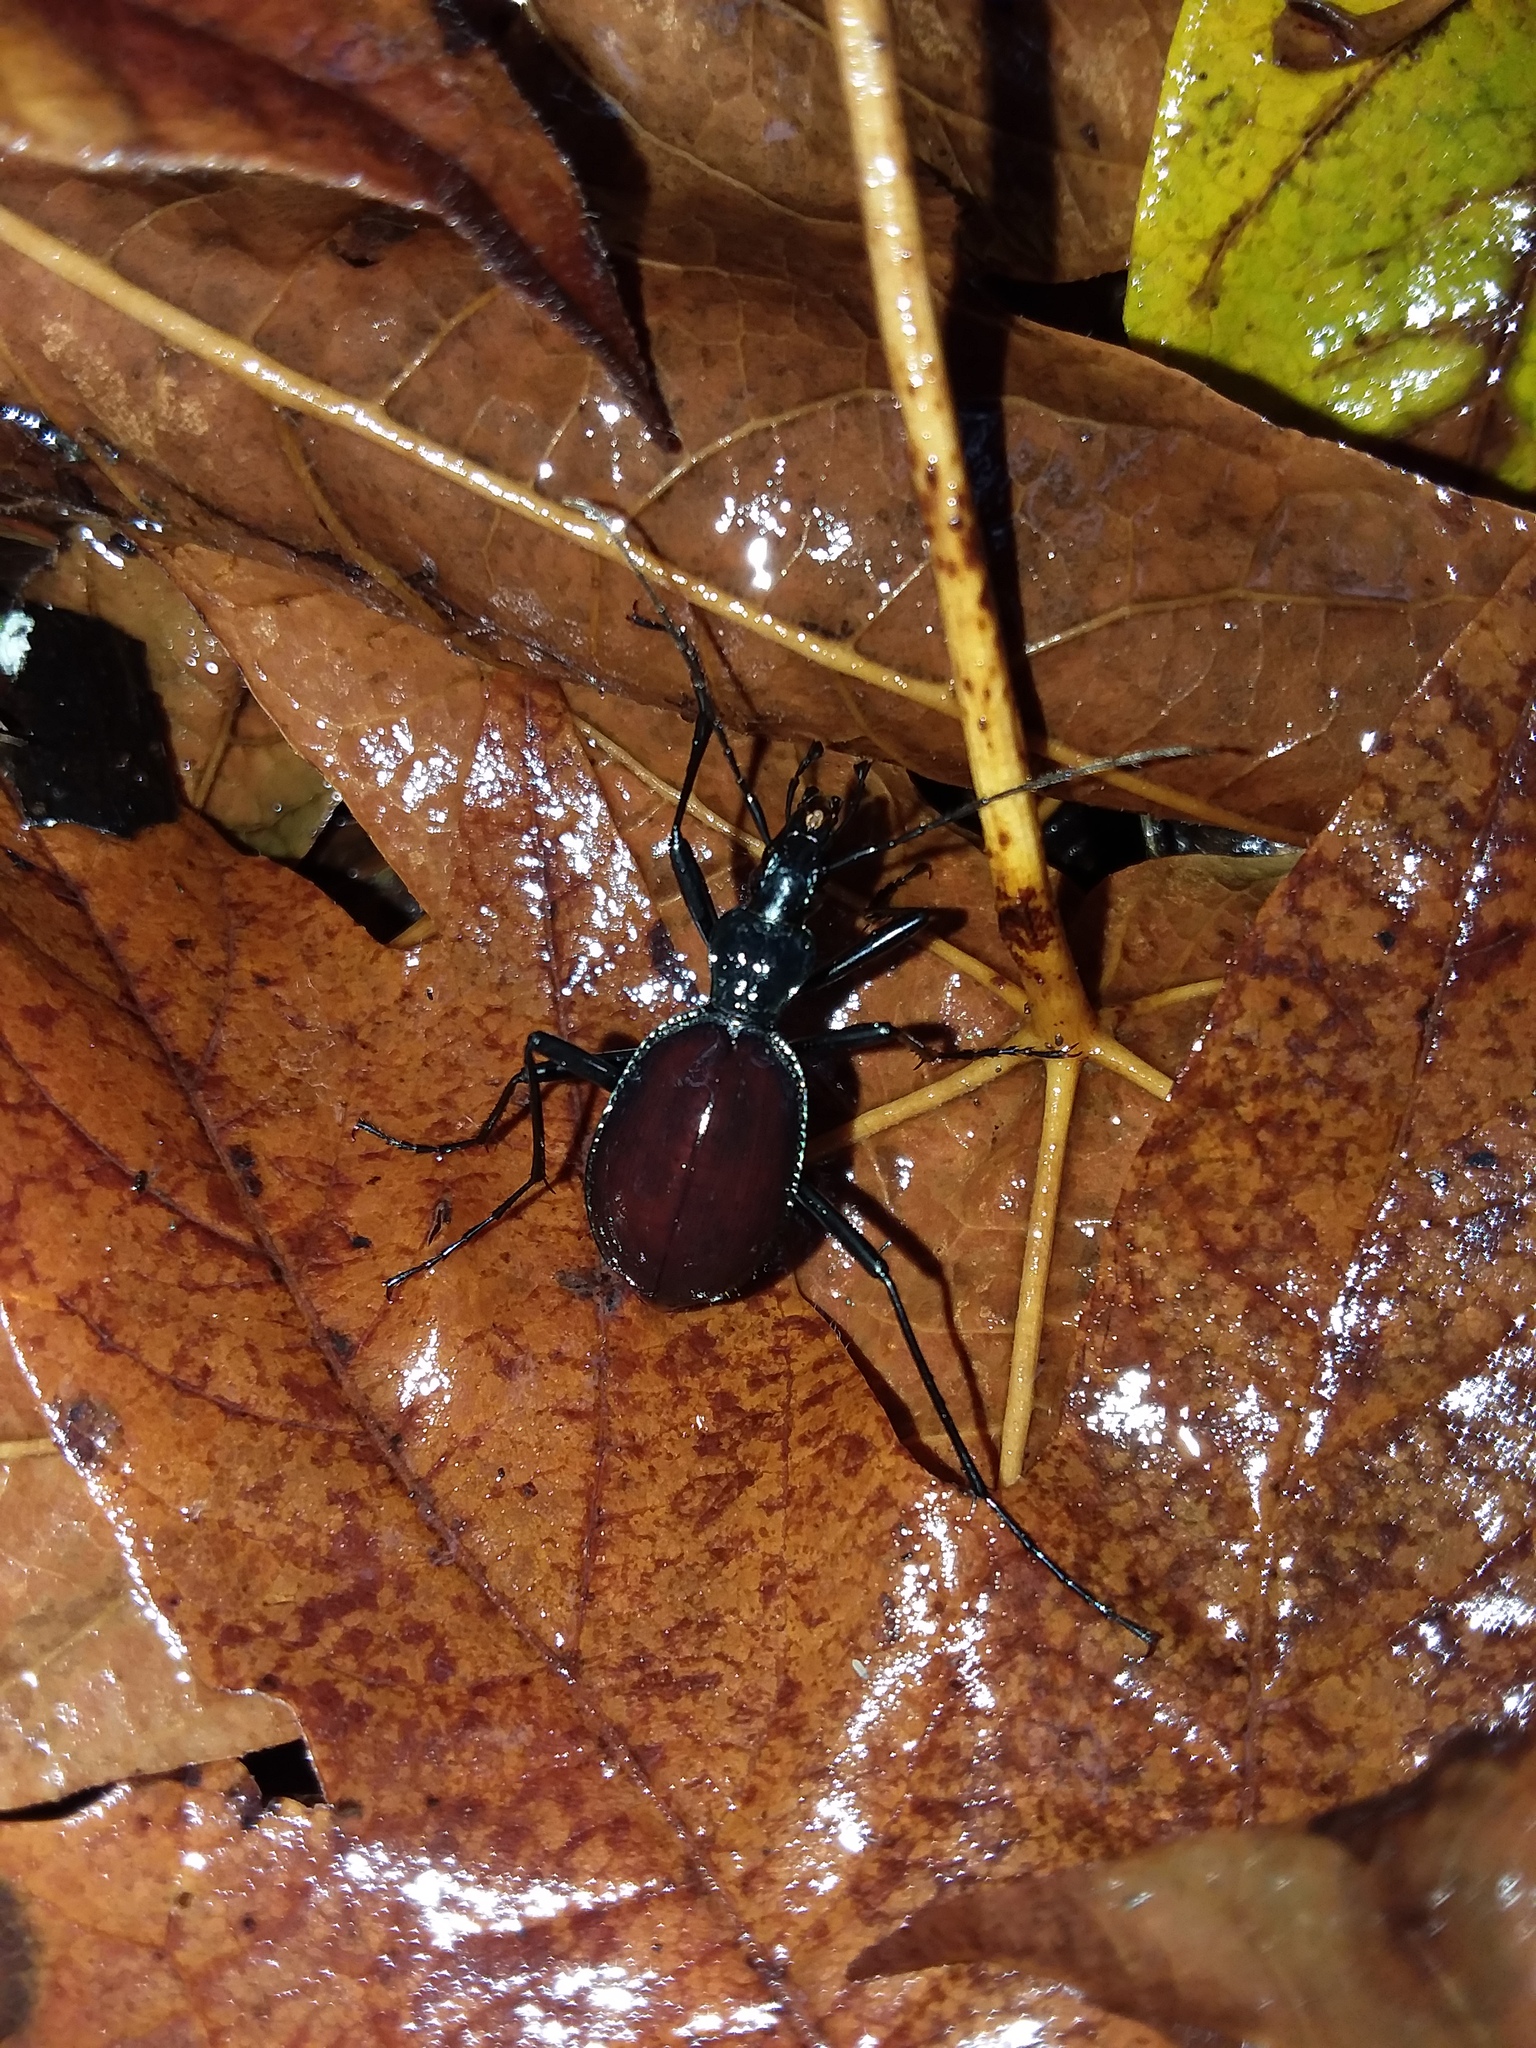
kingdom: Animalia
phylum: Arthropoda
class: Insecta
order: Coleoptera
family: Carabidae
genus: Scaphinotus
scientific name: Scaphinotus angusticollis
